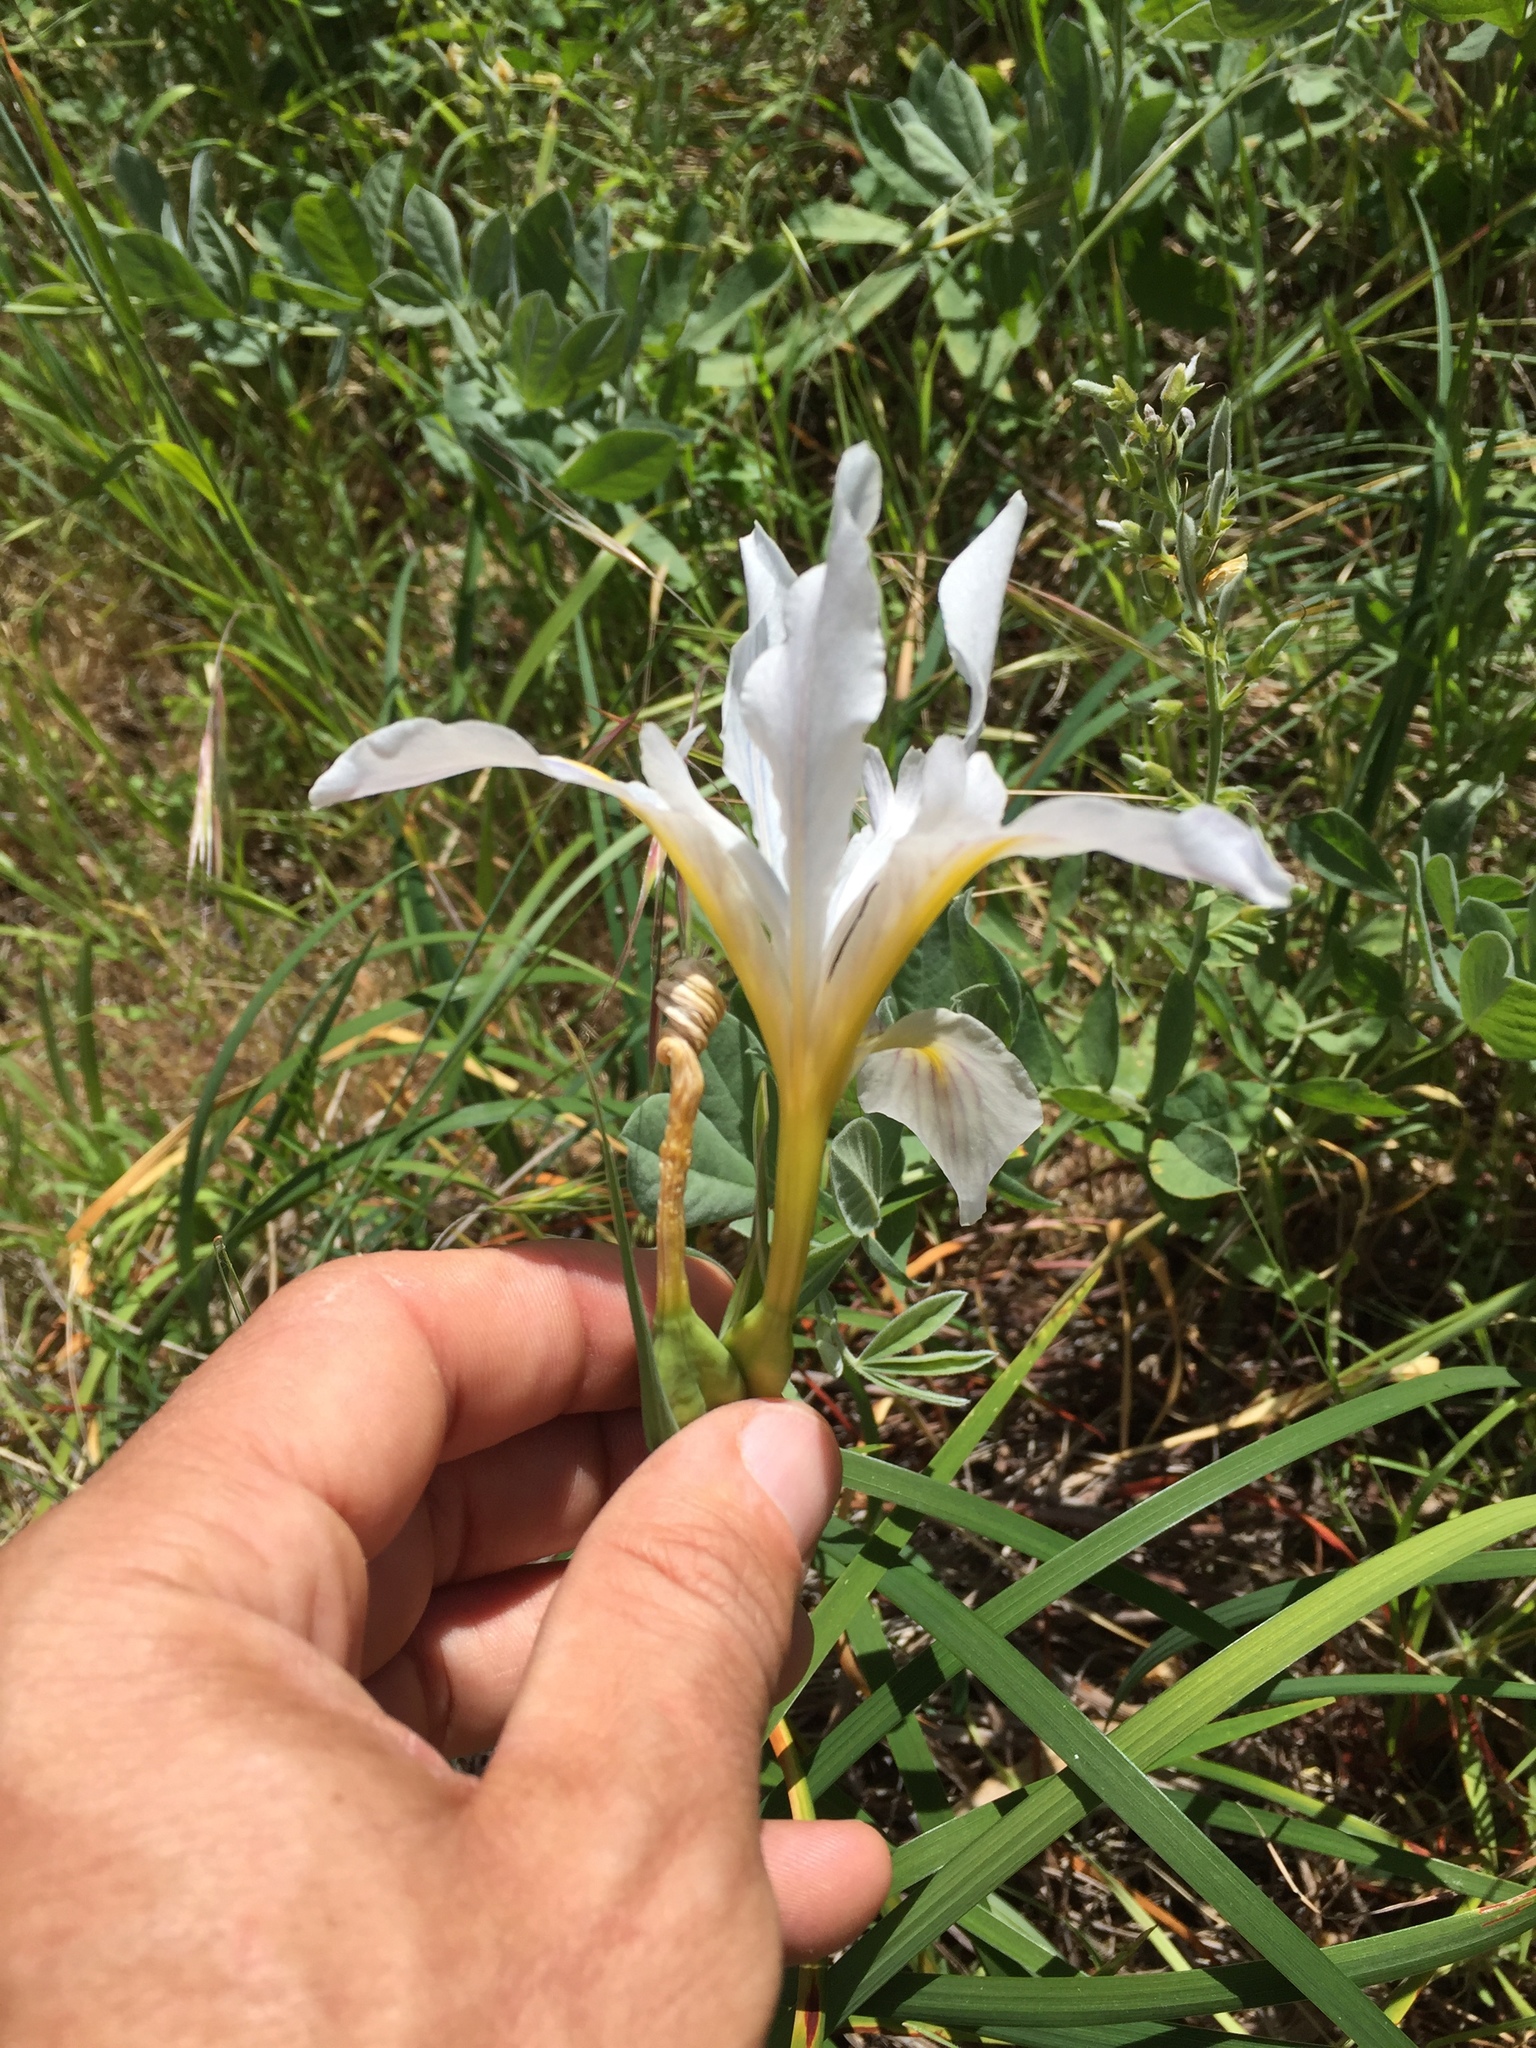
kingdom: Plantae
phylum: Tracheophyta
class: Liliopsida
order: Asparagales
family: Iridaceae
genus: Iris
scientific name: Iris douglasiana
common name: Marin iris
